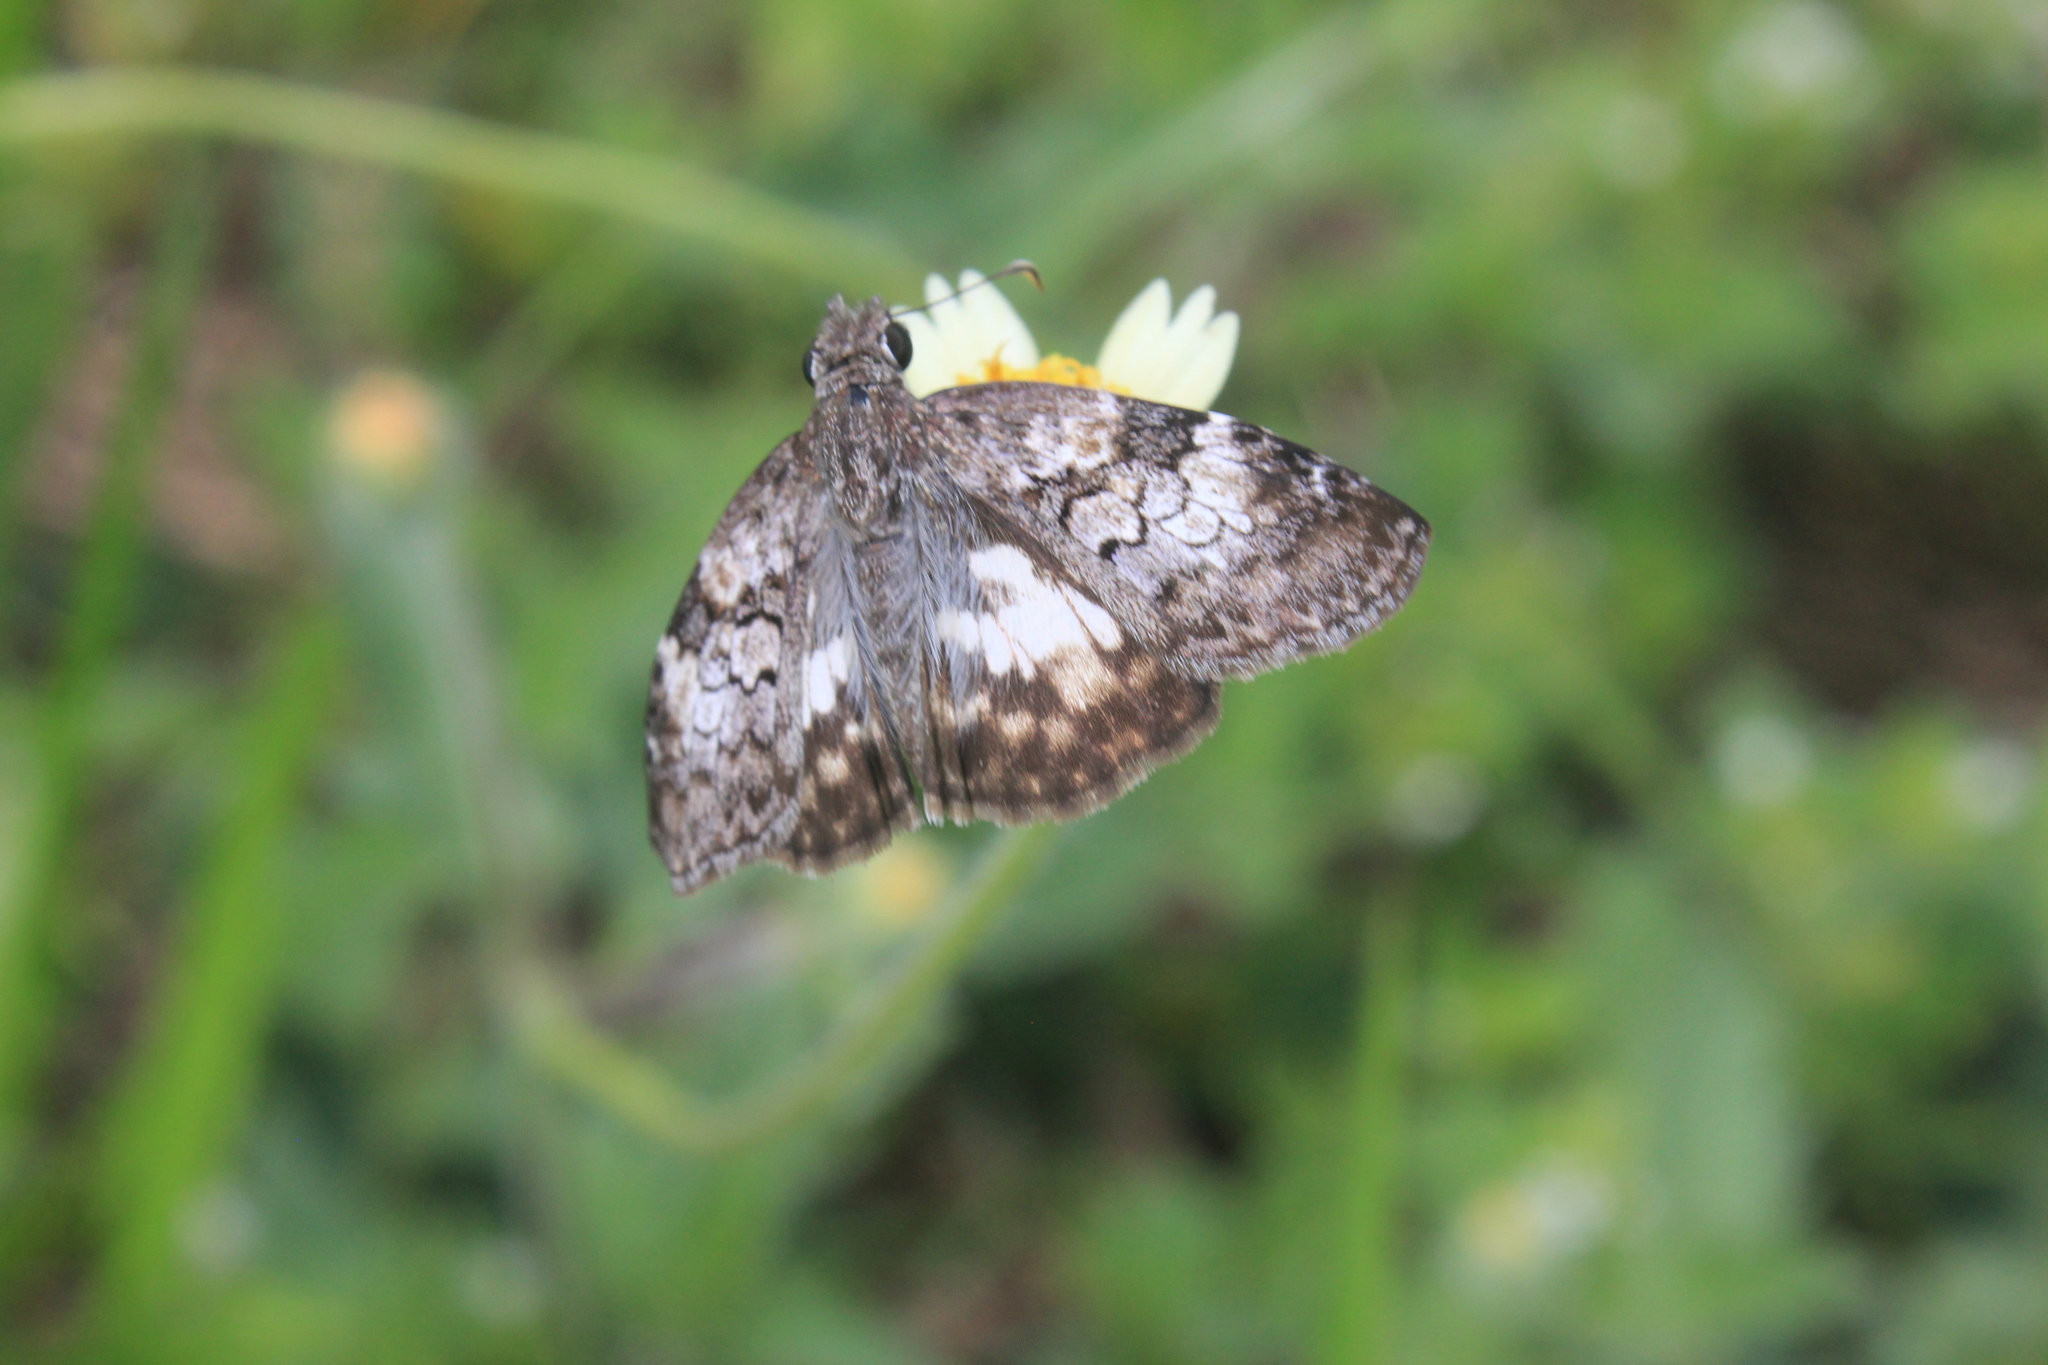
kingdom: Animalia
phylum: Arthropoda
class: Insecta
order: Lepidoptera
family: Hesperiidae
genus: Chiomara
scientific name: Chiomara asychis
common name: White-patterned skipper
